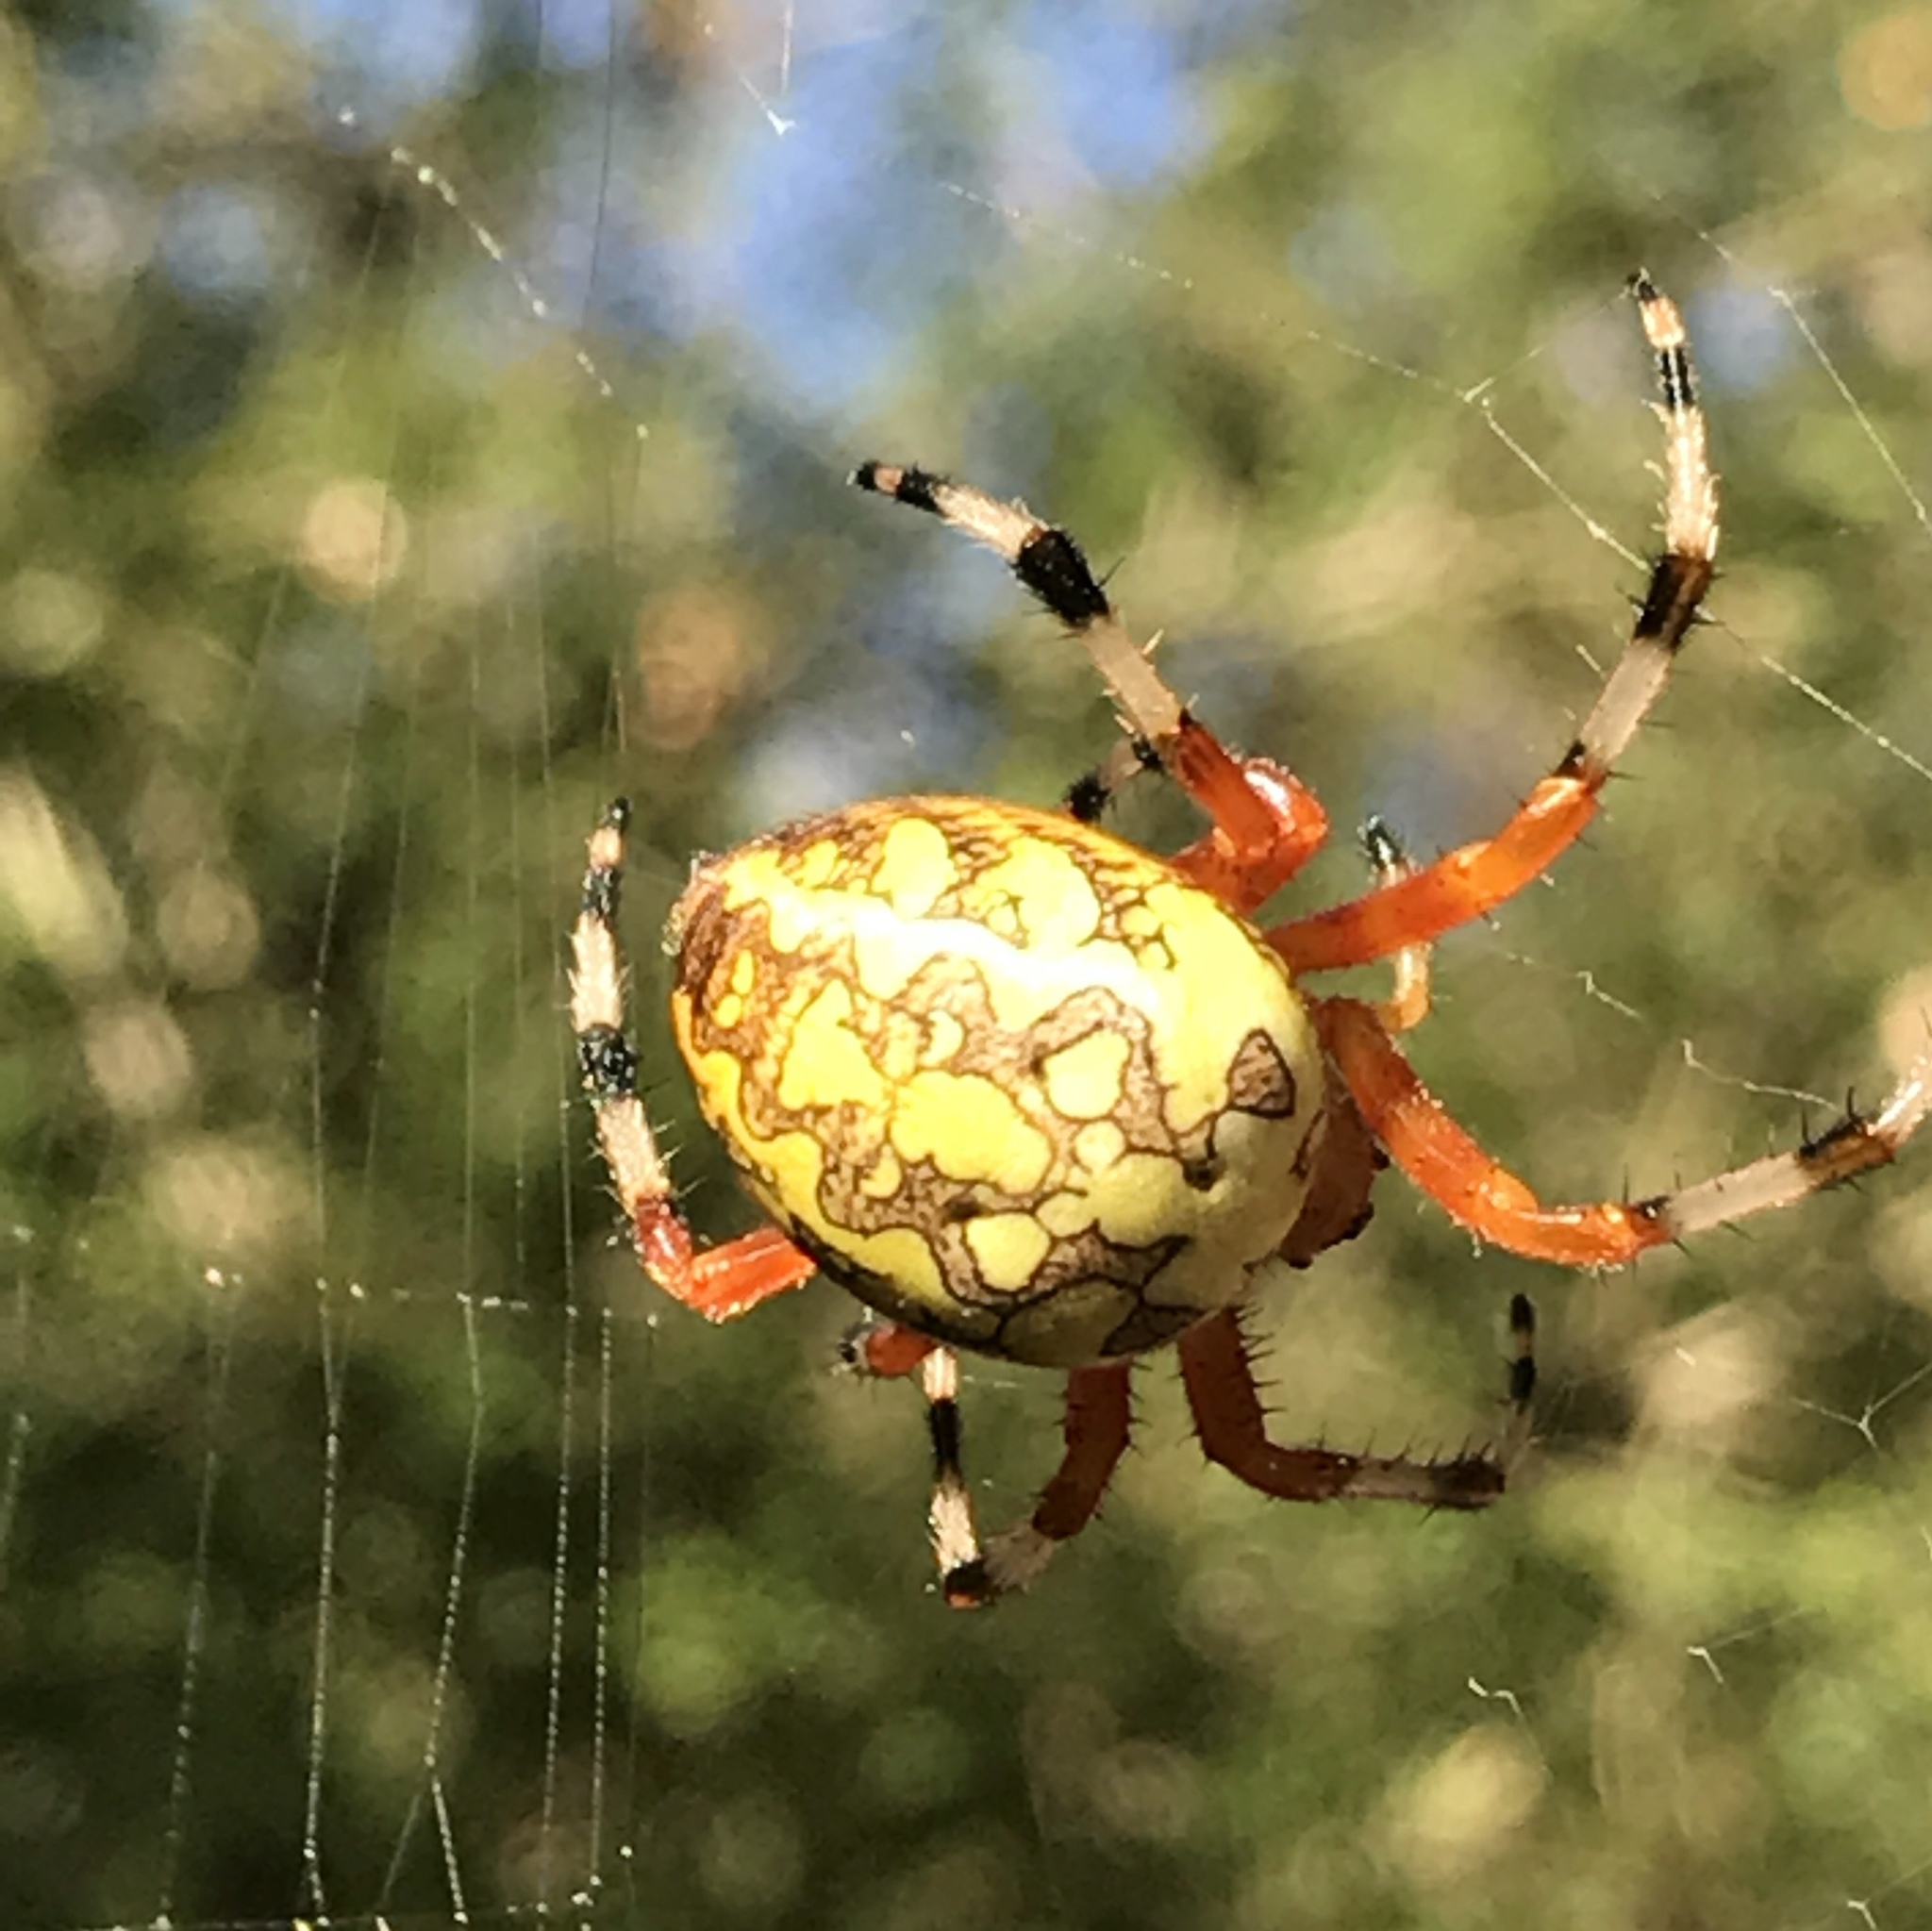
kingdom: Animalia
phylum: Arthropoda
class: Arachnida
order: Araneae
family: Araneidae
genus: Araneus
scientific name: Araneus marmoreus
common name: Marbled orbweaver
